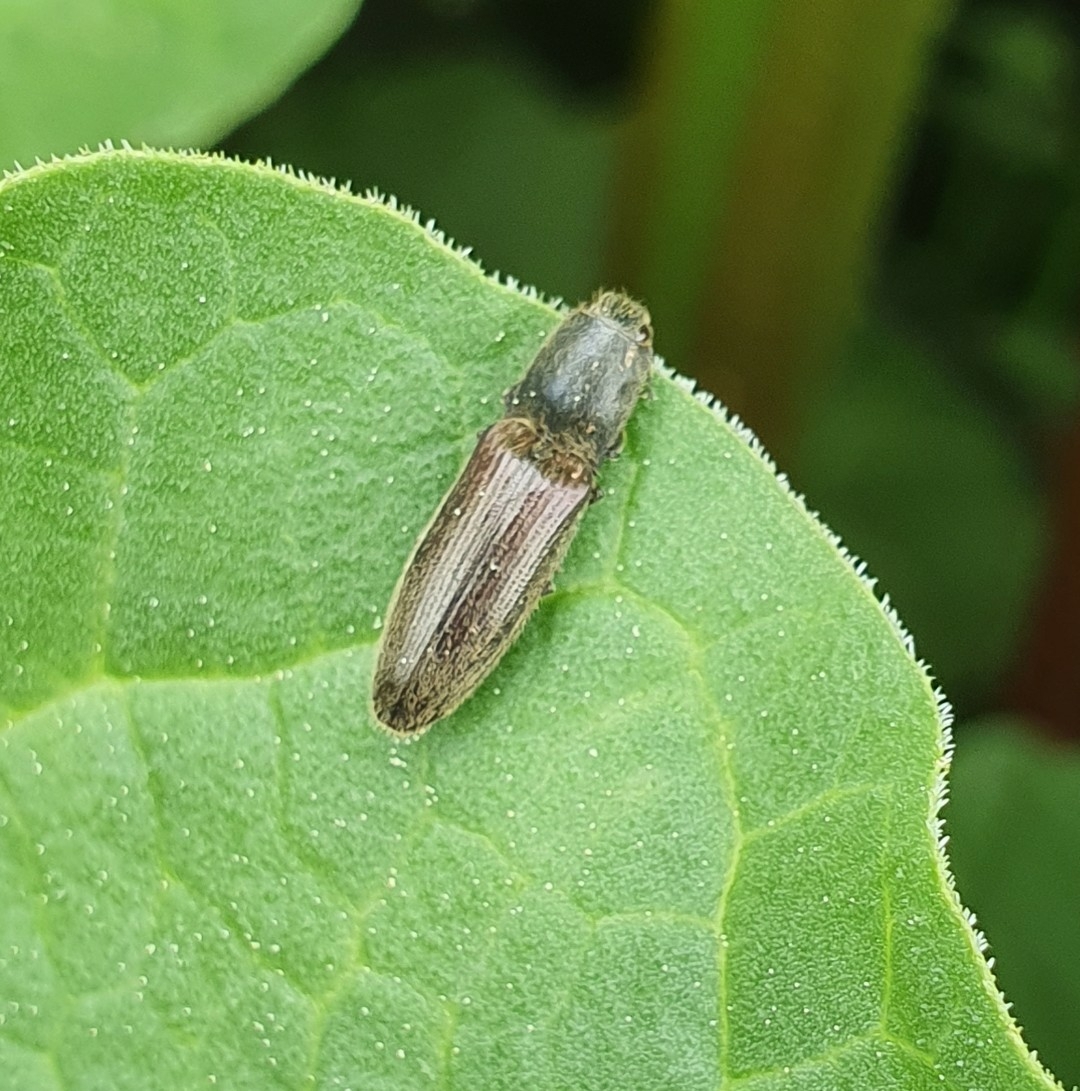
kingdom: Animalia
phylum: Arthropoda
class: Insecta
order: Coleoptera
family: Elateridae
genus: Athous
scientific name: Athous haemorrhoidalis
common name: Red-brown click beetle
